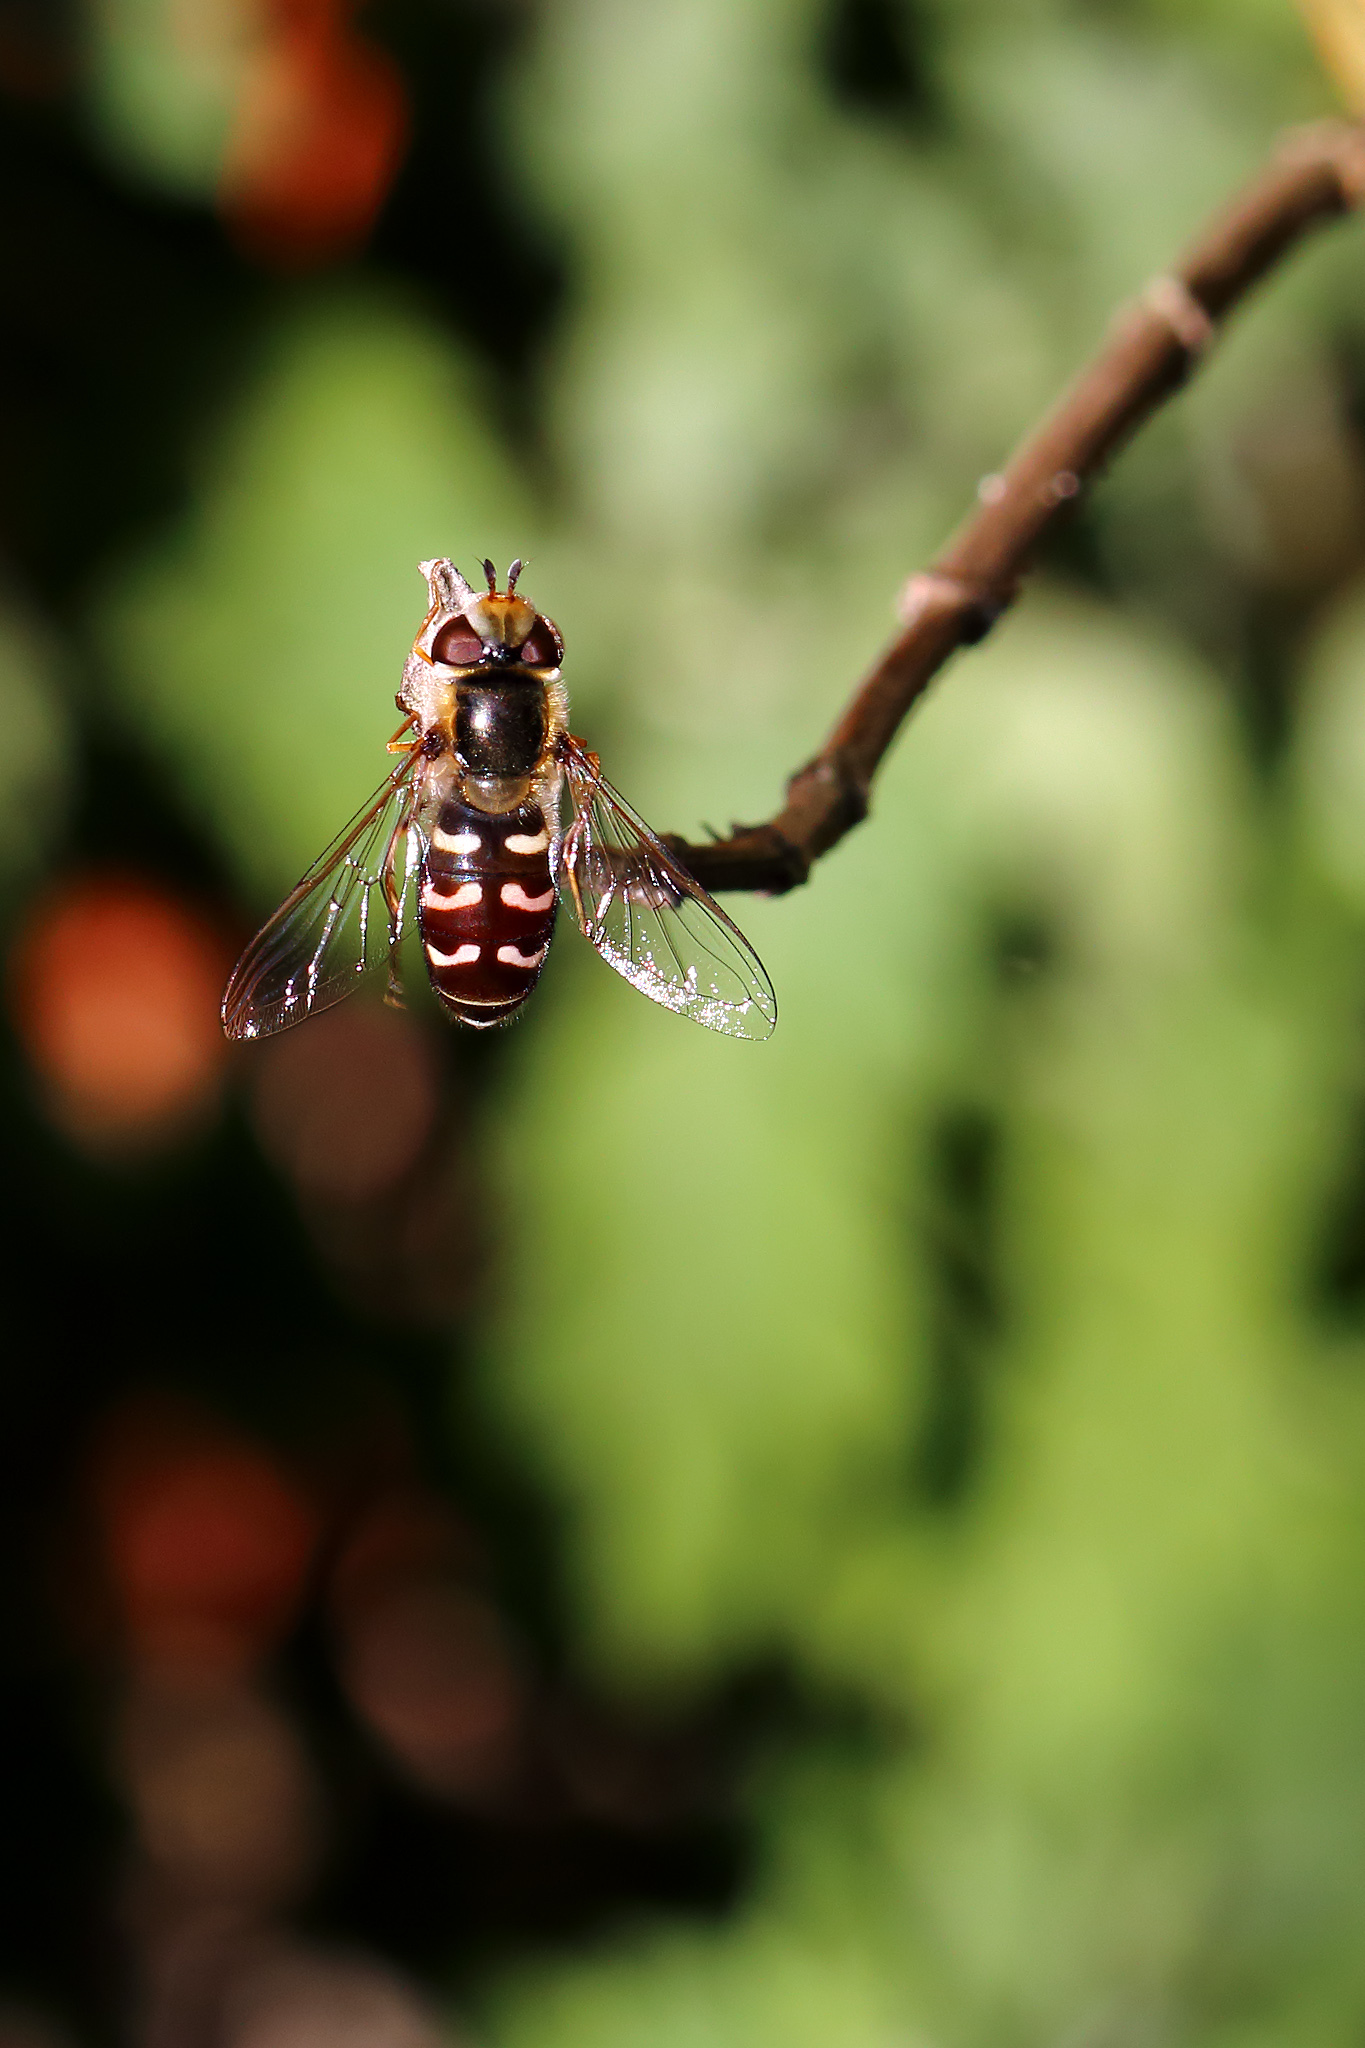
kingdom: Animalia
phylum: Arthropoda
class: Insecta
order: Diptera
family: Syrphidae
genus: Scaeva
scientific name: Scaeva pyrastri
